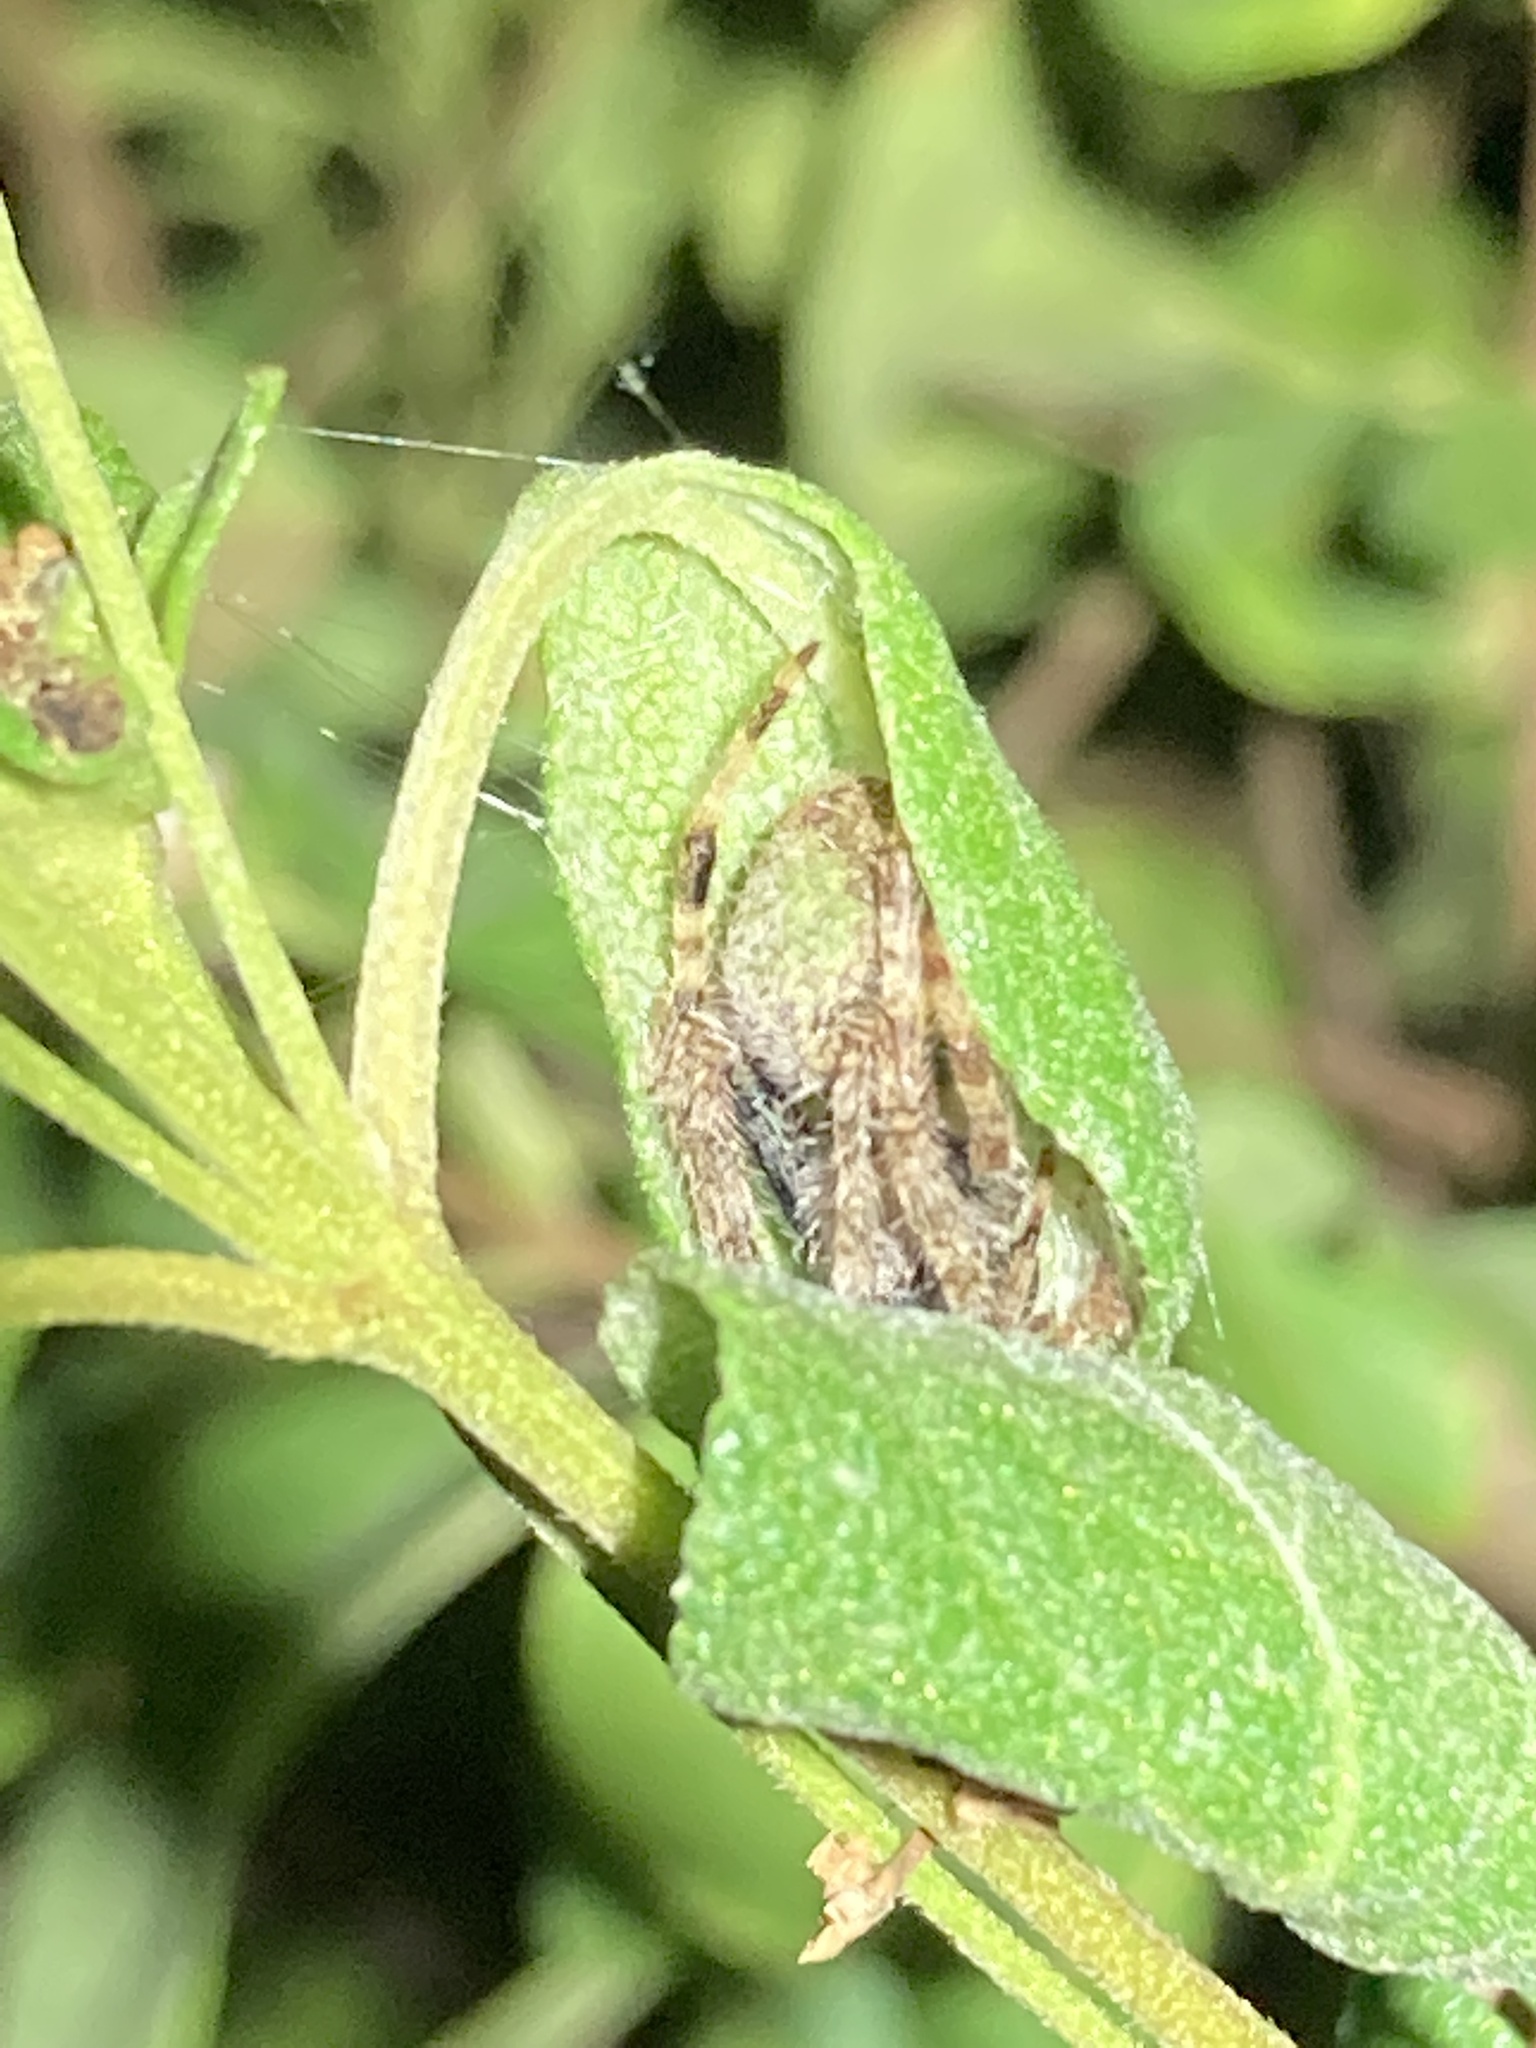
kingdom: Animalia
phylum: Arthropoda
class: Arachnida
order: Araneae
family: Araneidae
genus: Eriophora
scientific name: Eriophora ravilla
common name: Orb weavers
